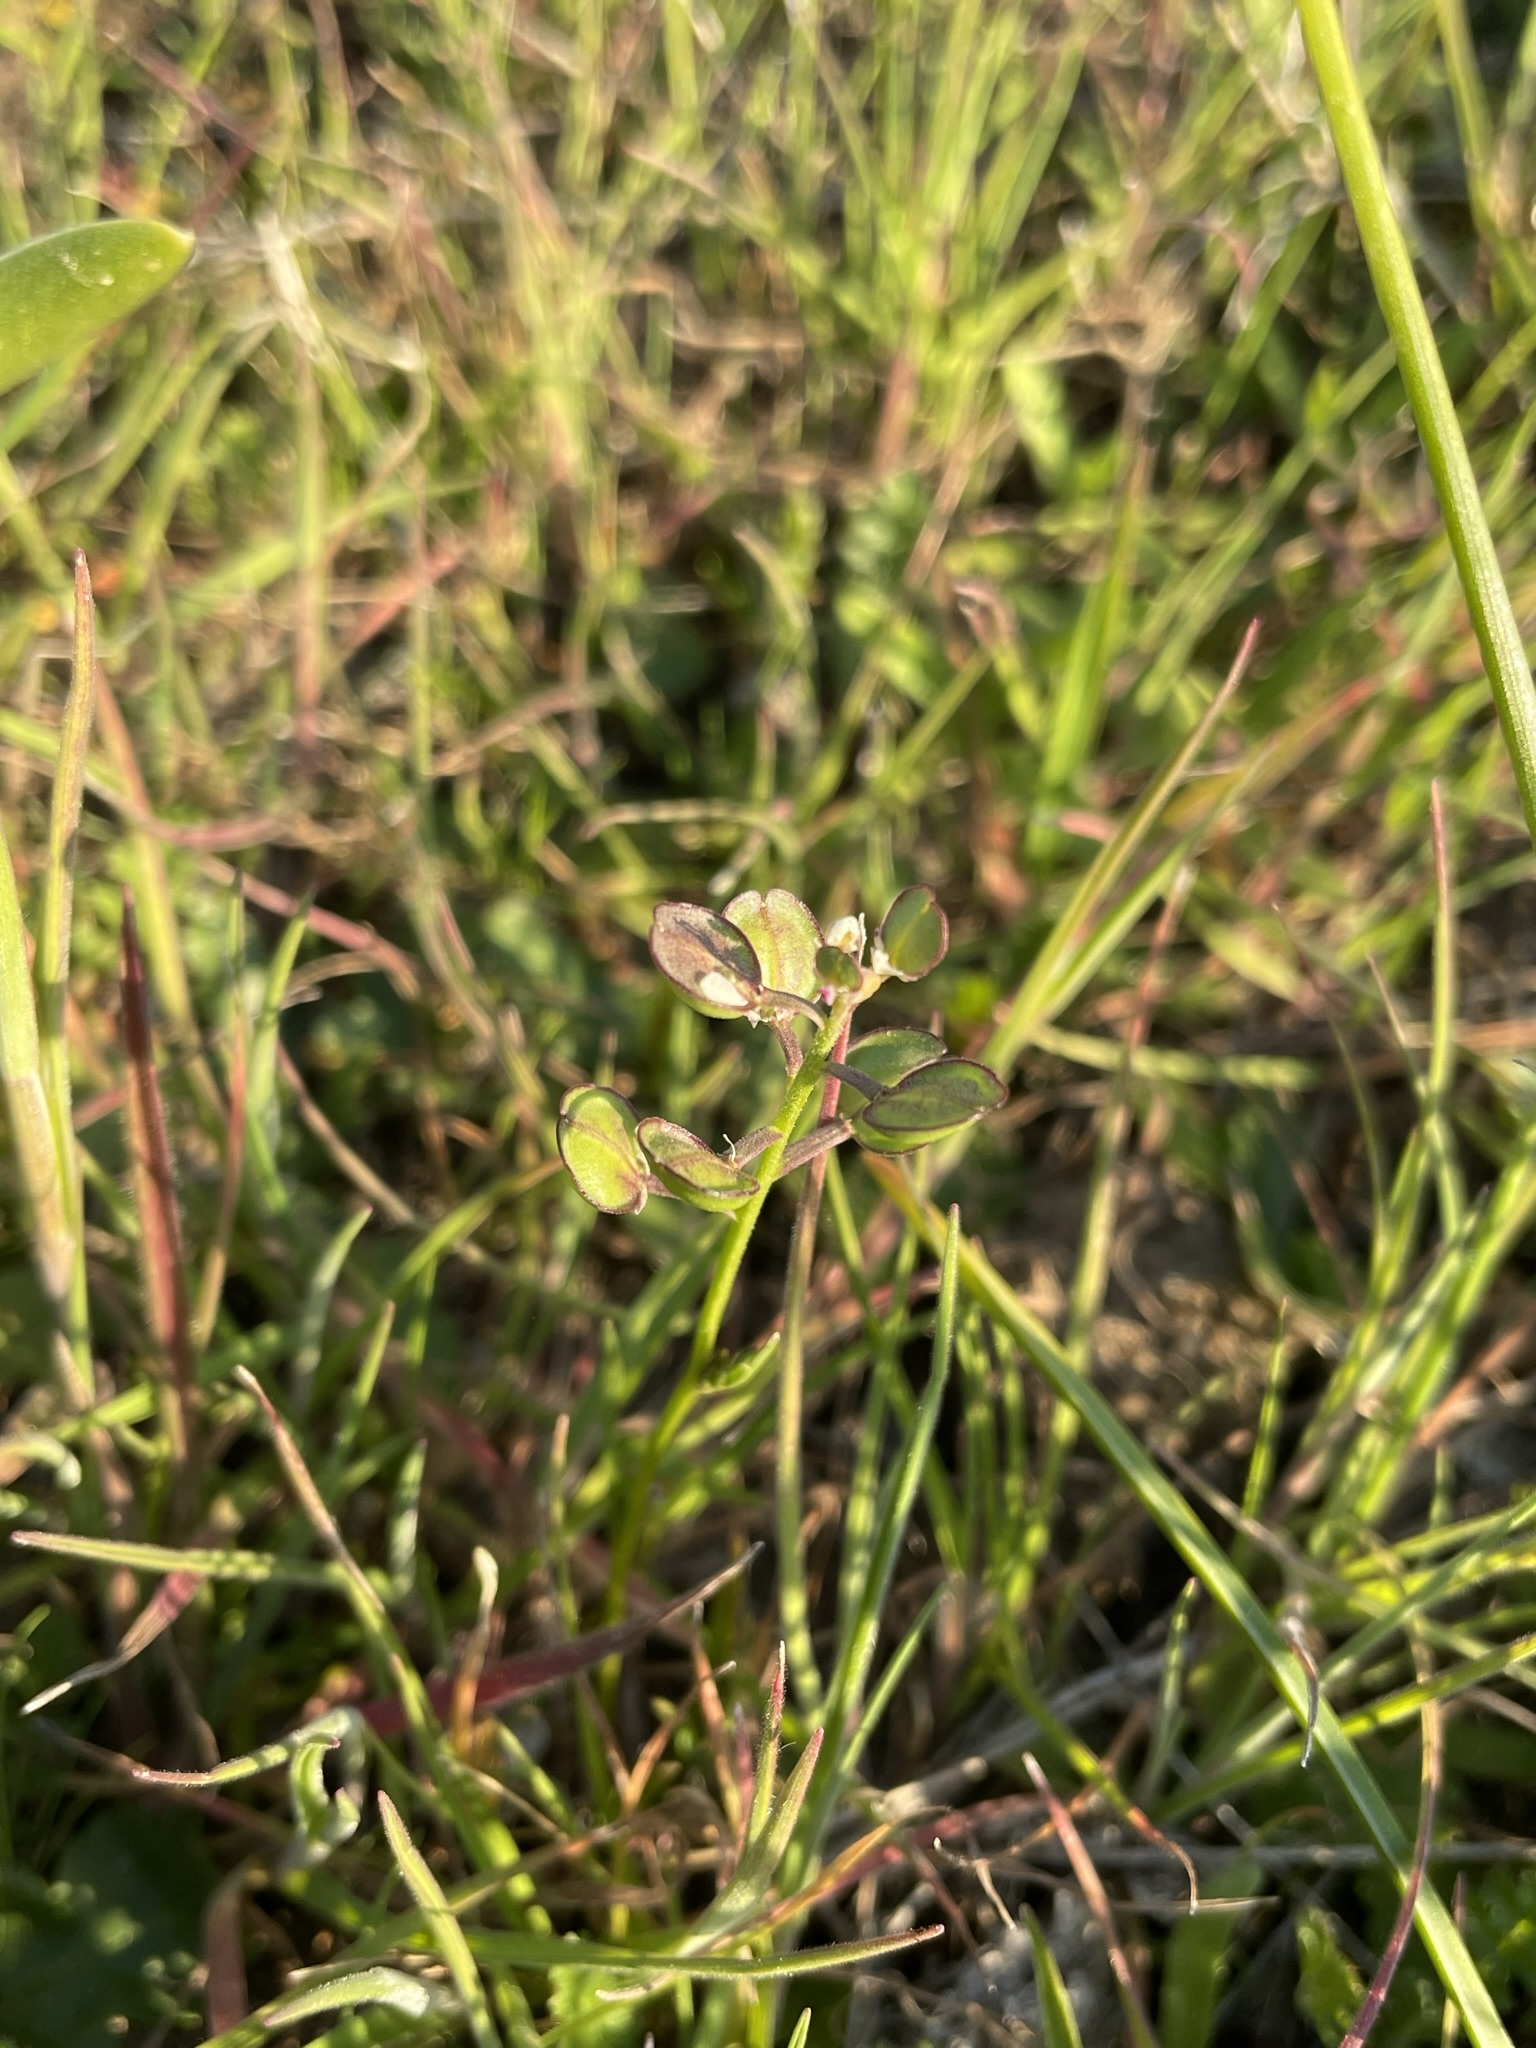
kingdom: Plantae
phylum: Tracheophyta
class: Magnoliopsida
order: Brassicales
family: Brassicaceae
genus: Lepidium
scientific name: Lepidium nitidum
